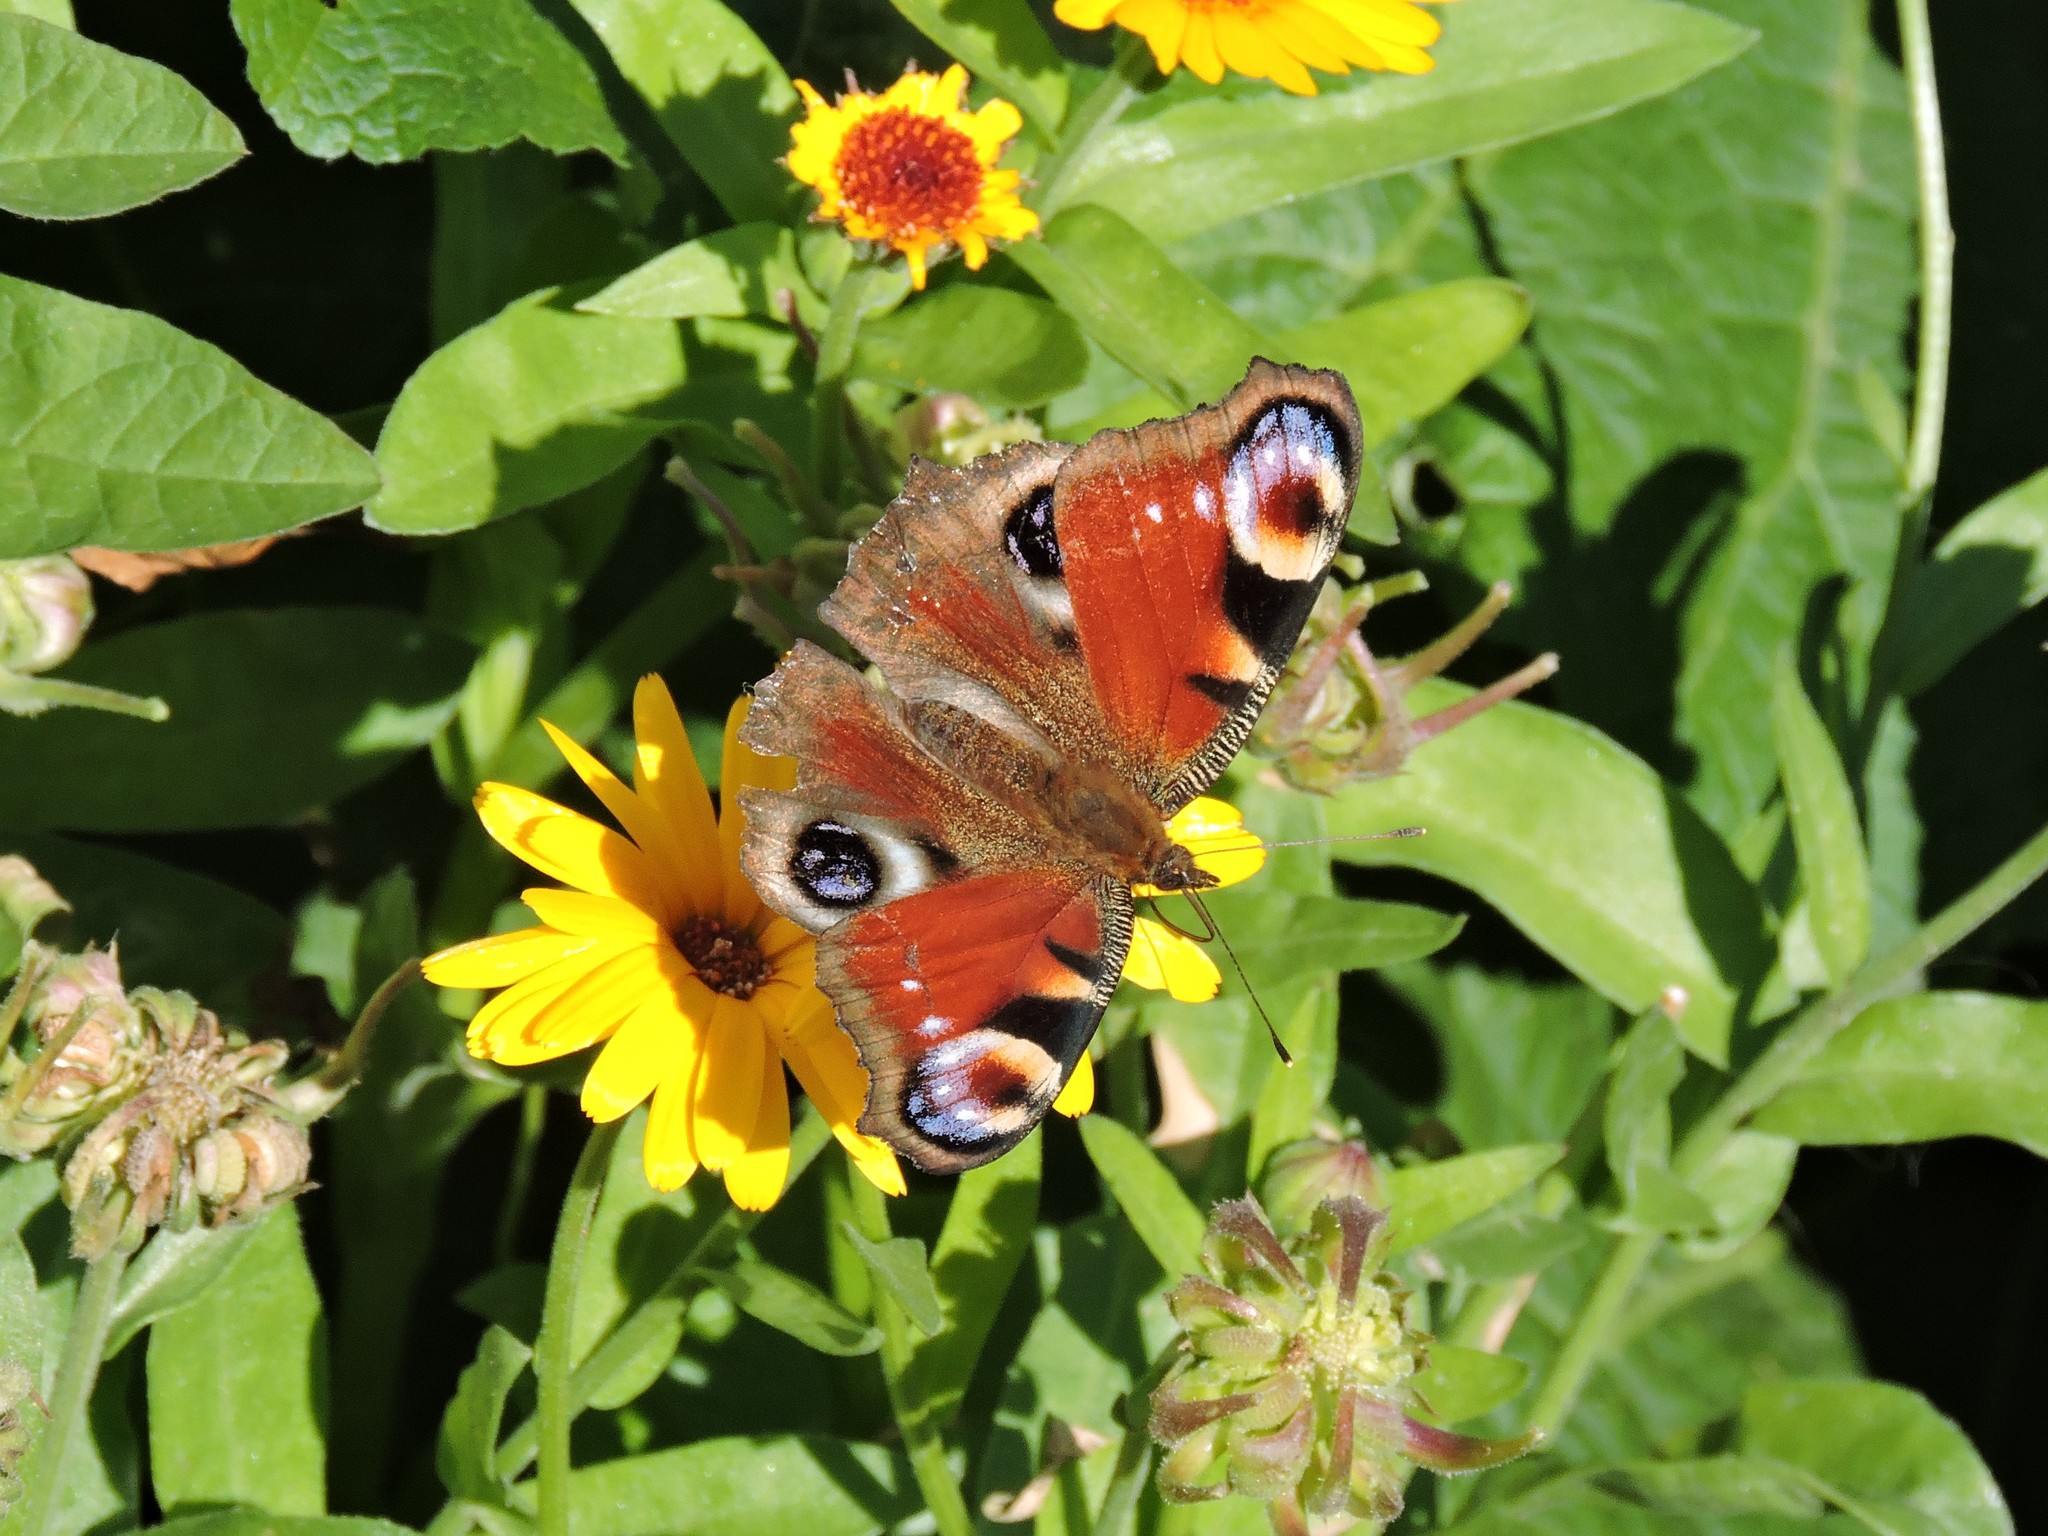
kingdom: Animalia
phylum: Arthropoda
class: Insecta
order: Lepidoptera
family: Nymphalidae
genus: Aglais
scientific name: Aglais io
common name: Peacock
